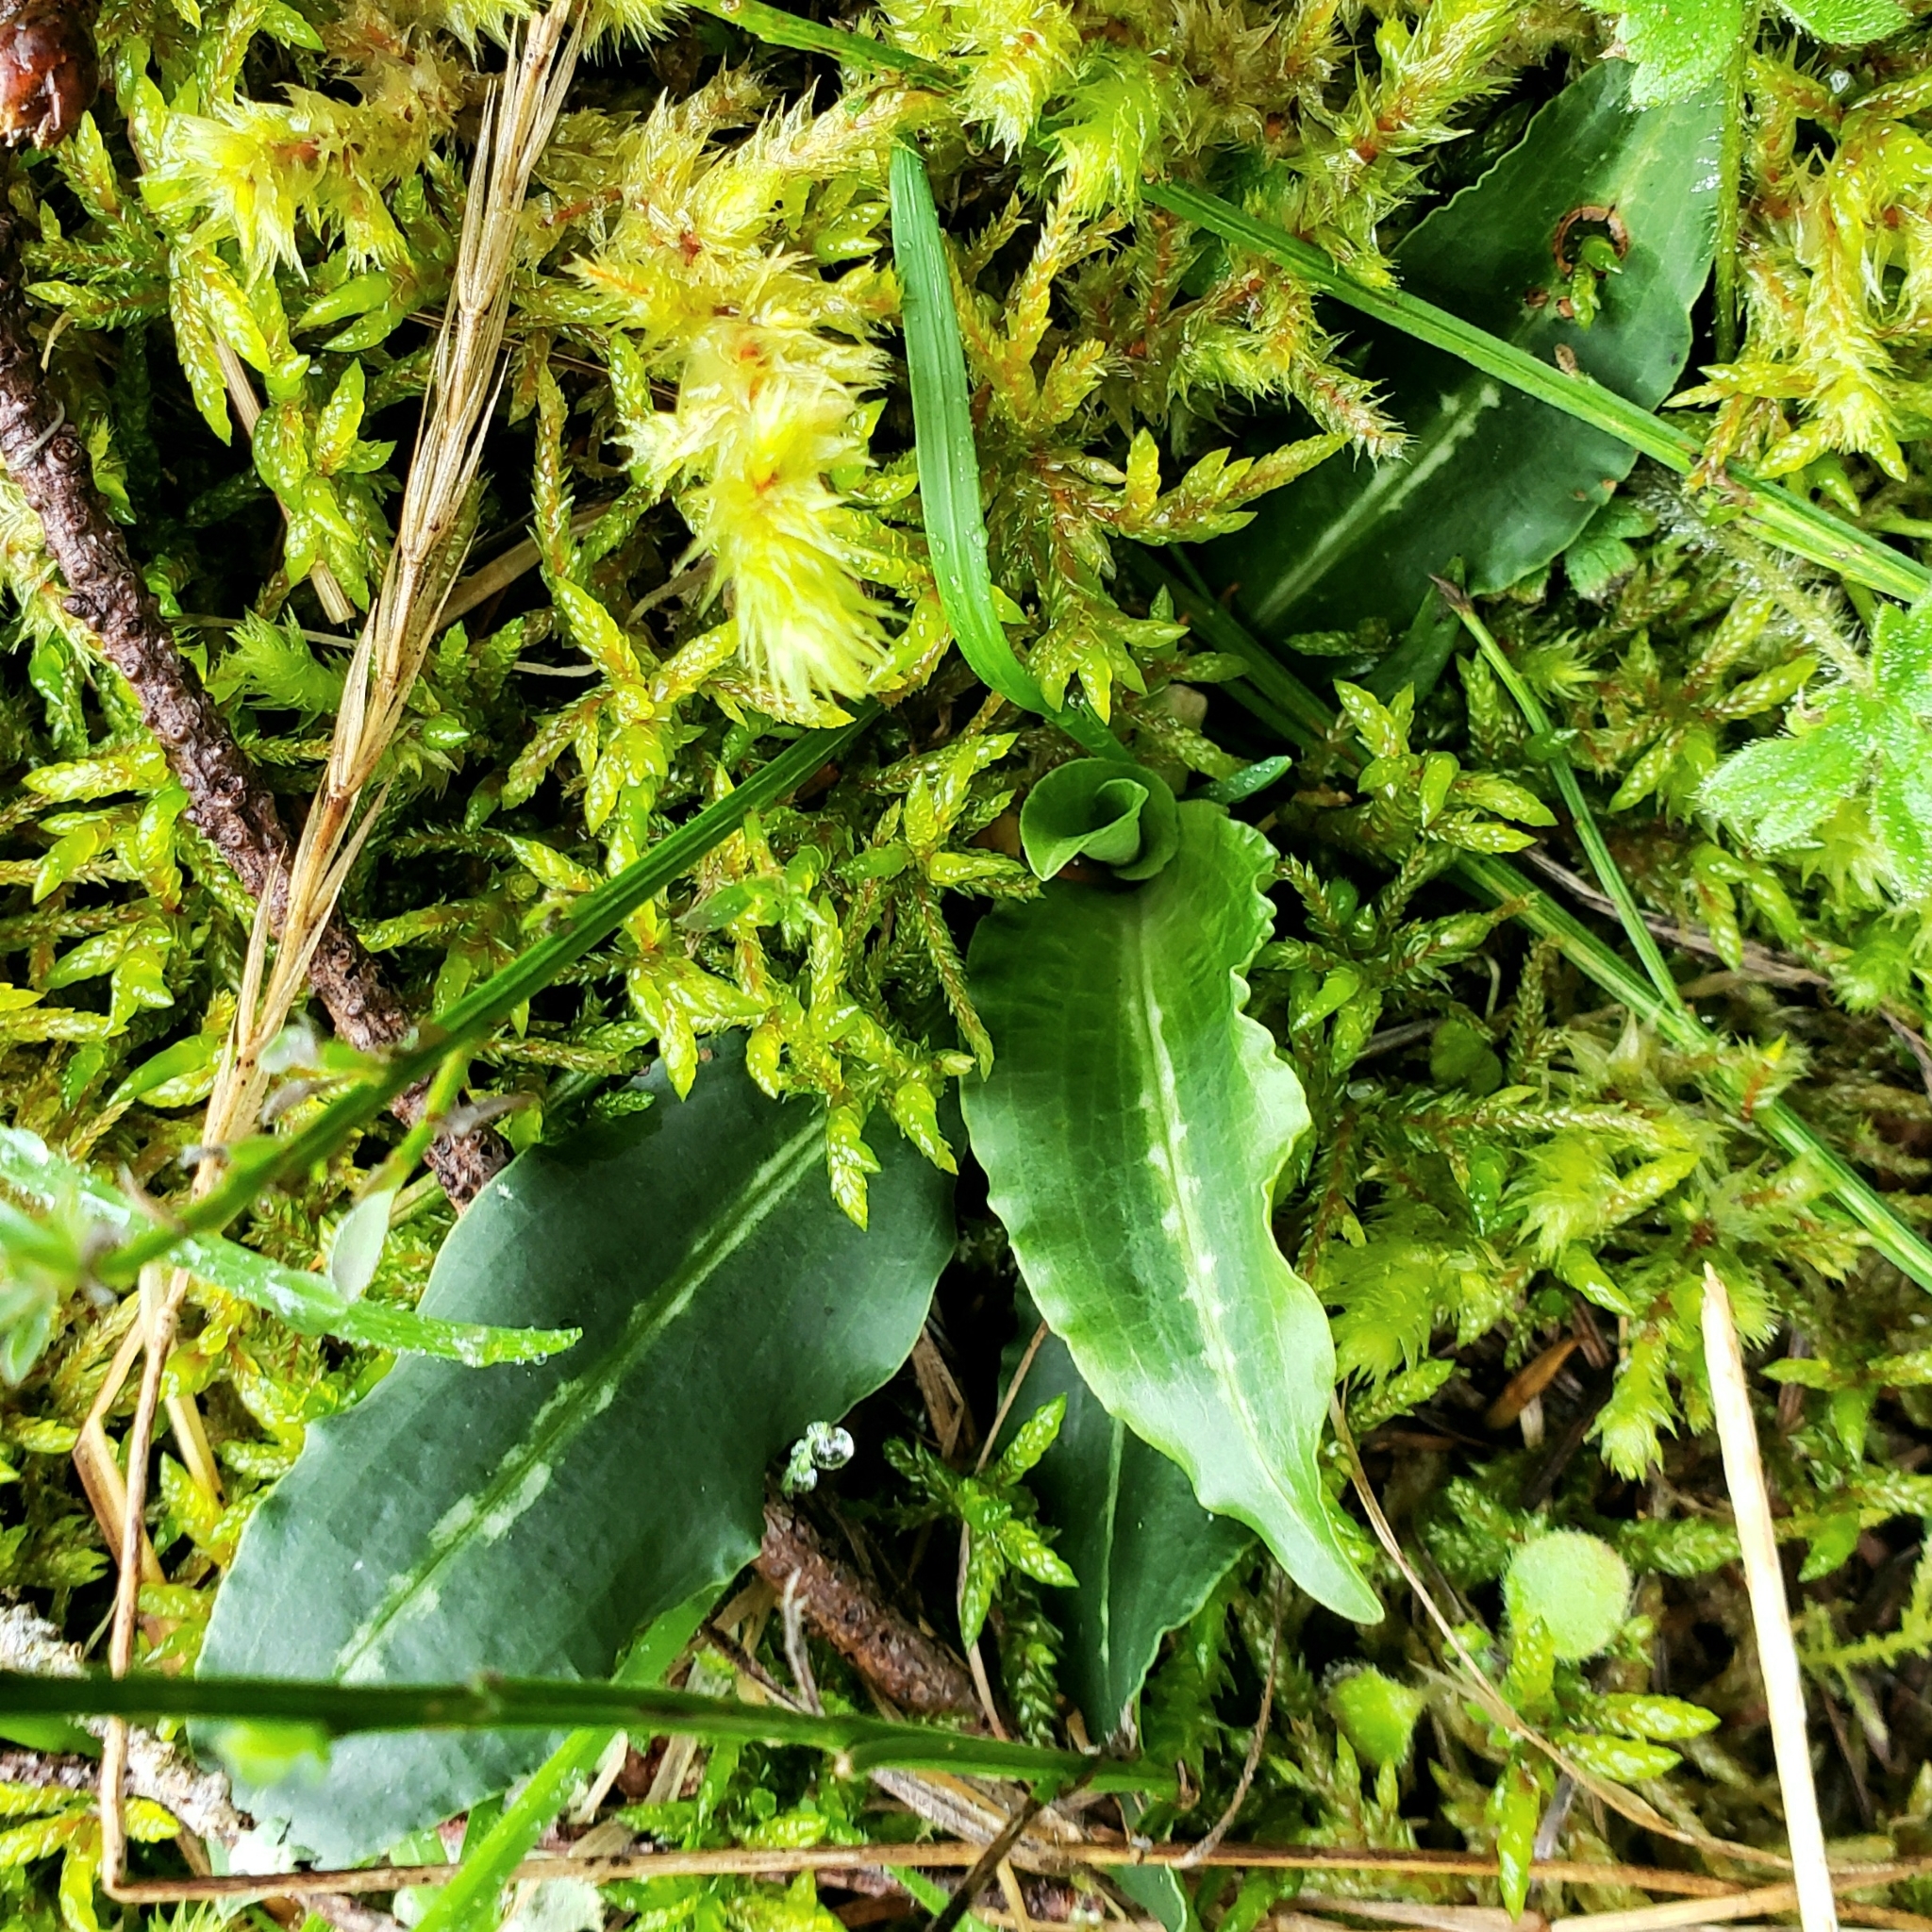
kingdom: Plantae
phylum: Tracheophyta
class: Liliopsida
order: Asparagales
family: Orchidaceae
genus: Goodyera
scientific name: Goodyera oblongifolia
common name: Giant rattlesnake-plantain
